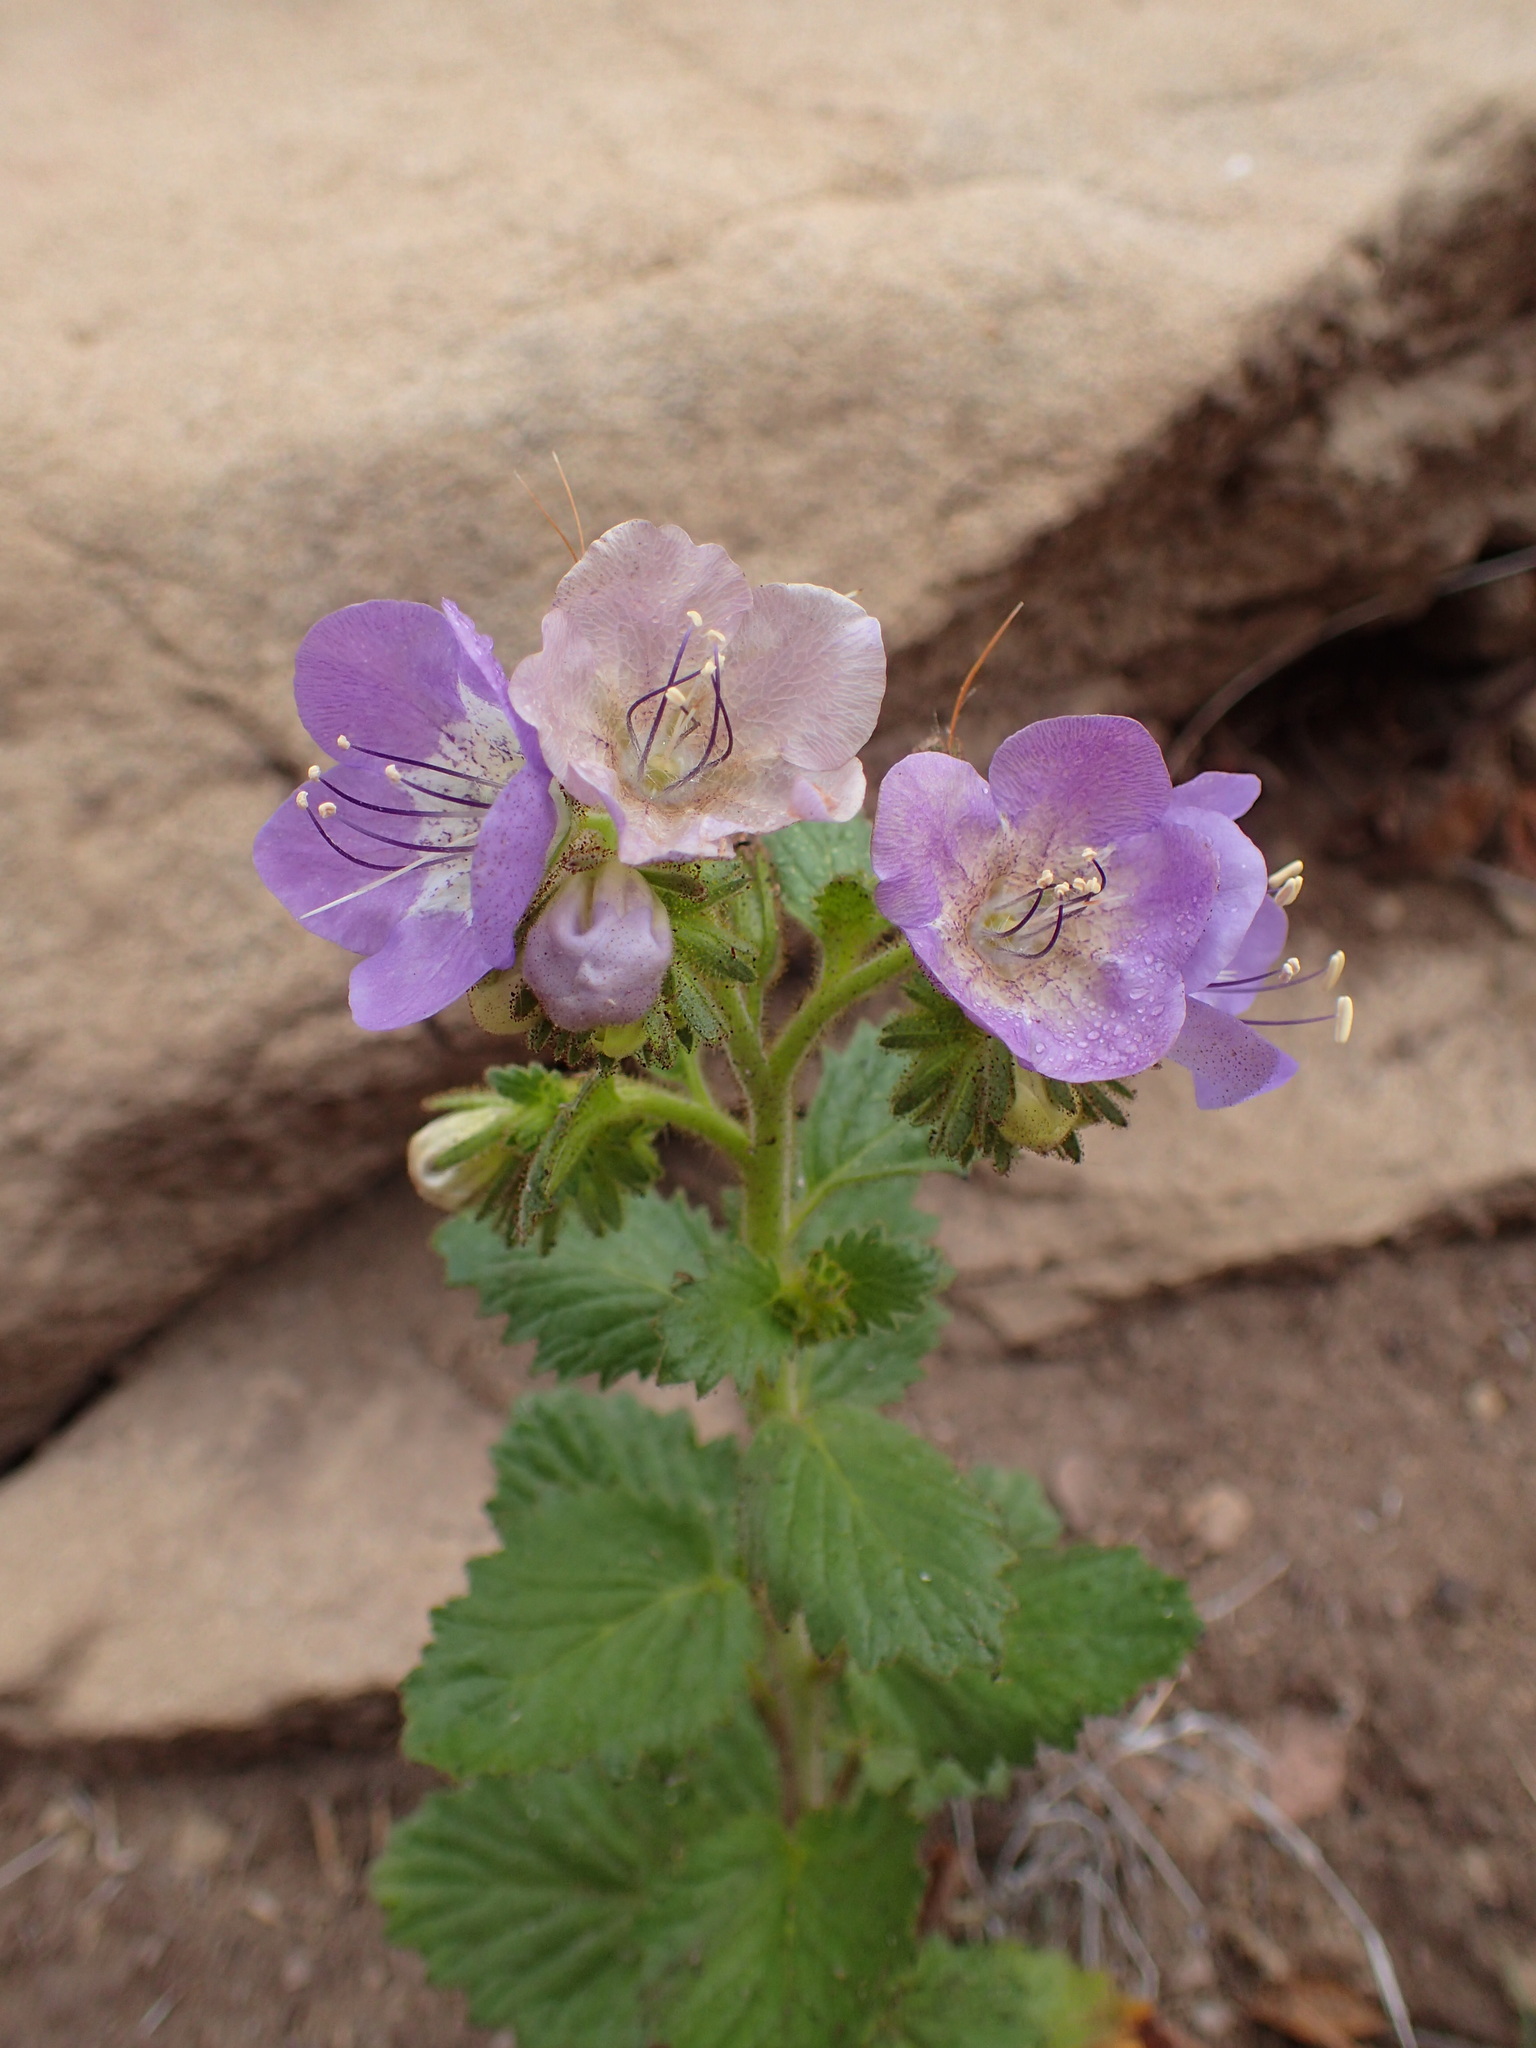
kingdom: Plantae
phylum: Tracheophyta
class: Magnoliopsida
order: Boraginales
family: Hydrophyllaceae
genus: Phacelia
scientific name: Phacelia grandiflora
